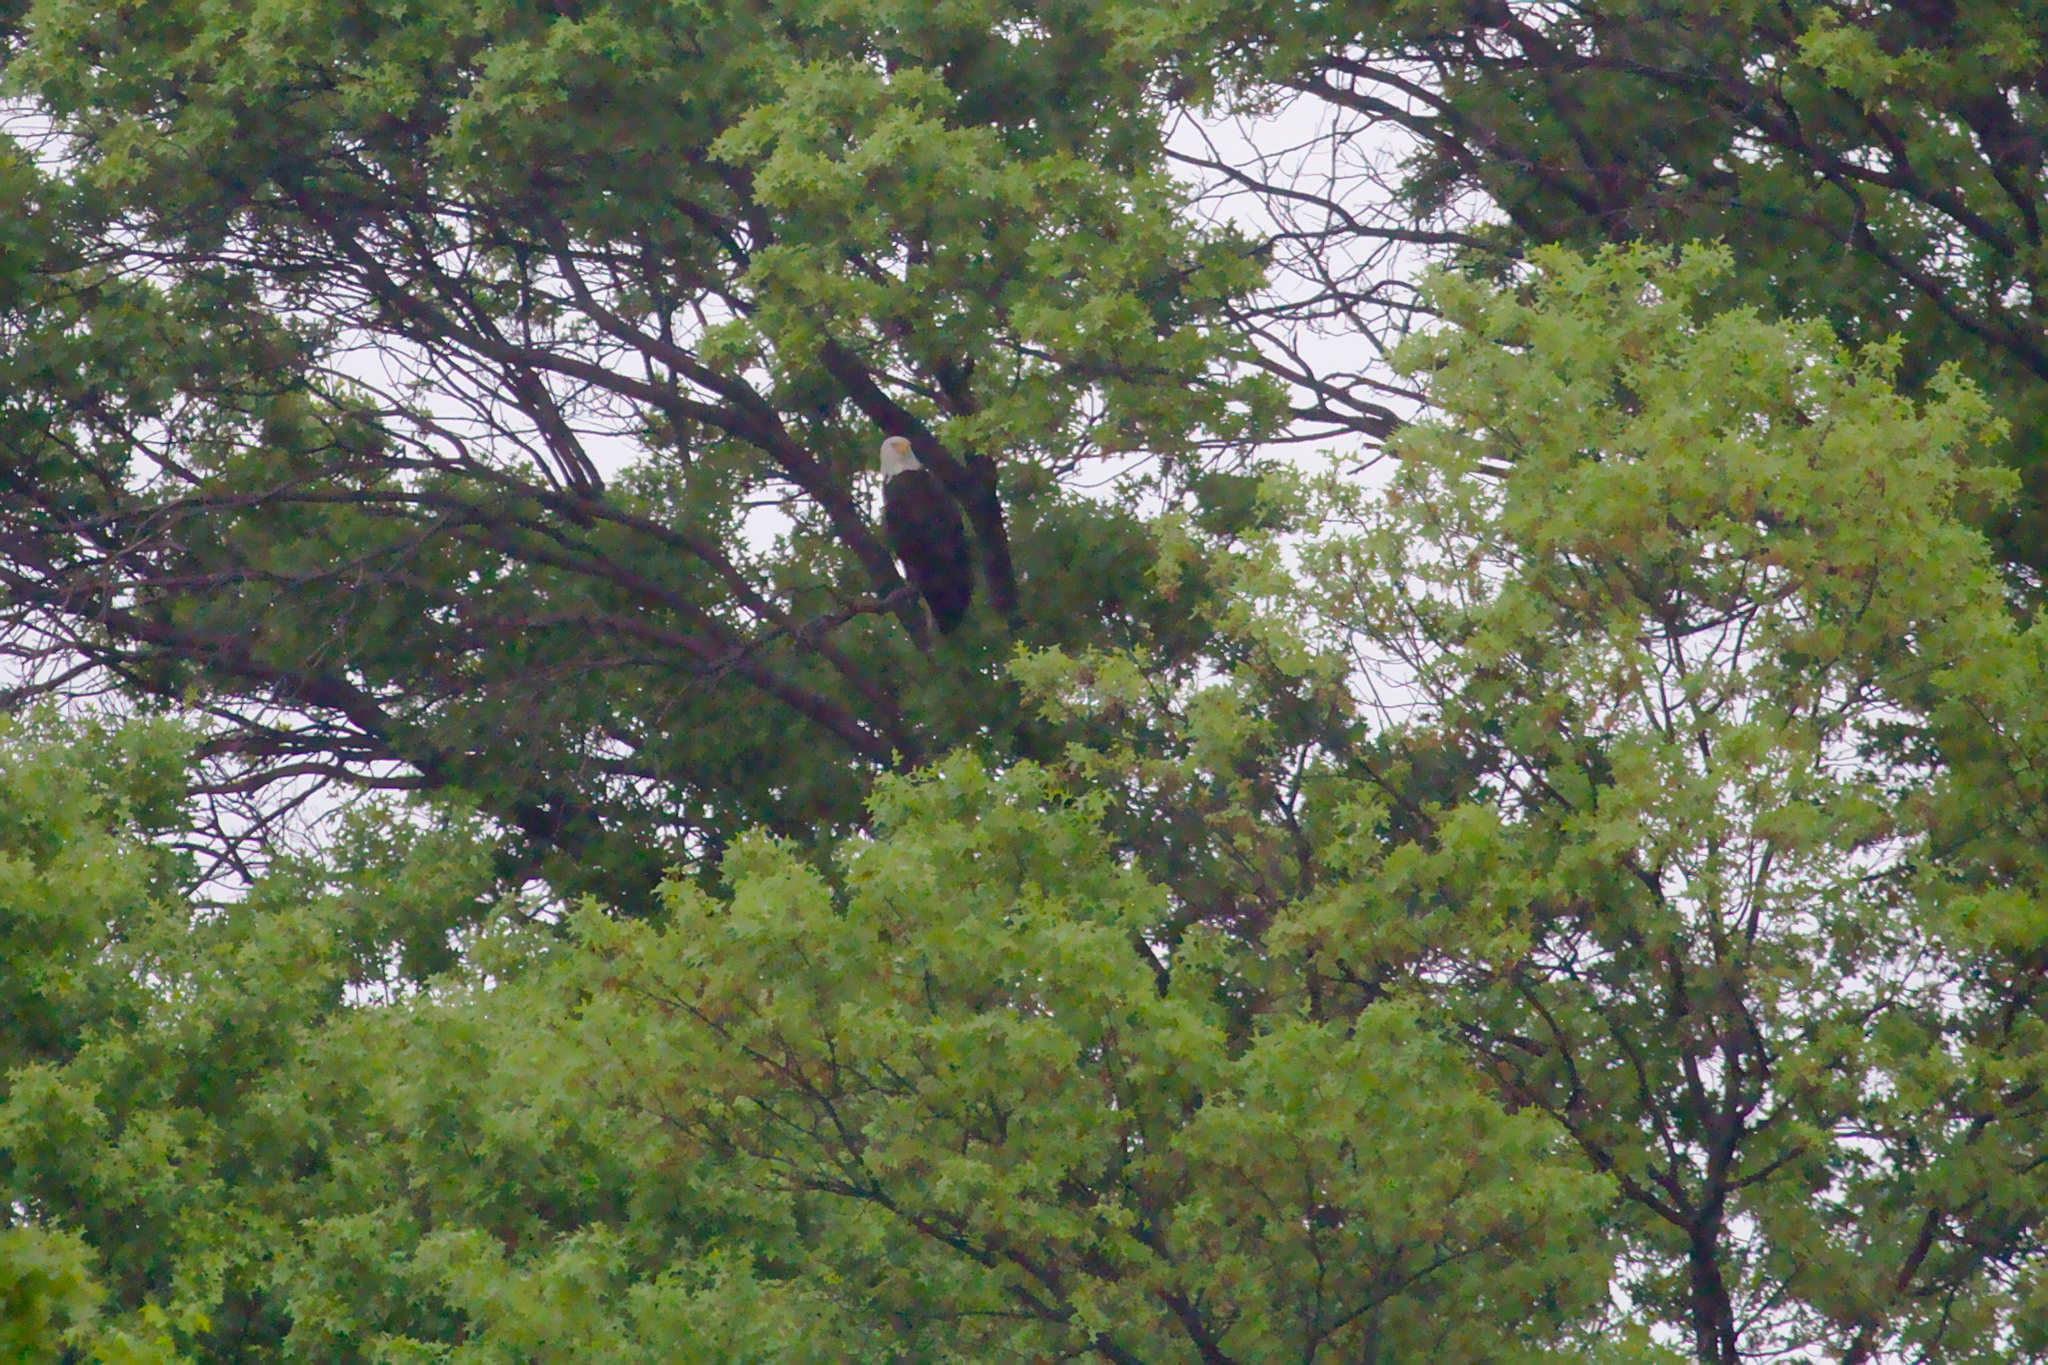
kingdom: Animalia
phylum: Chordata
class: Aves
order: Accipitriformes
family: Accipitridae
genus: Haliaeetus
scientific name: Haliaeetus leucocephalus
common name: Bald eagle
